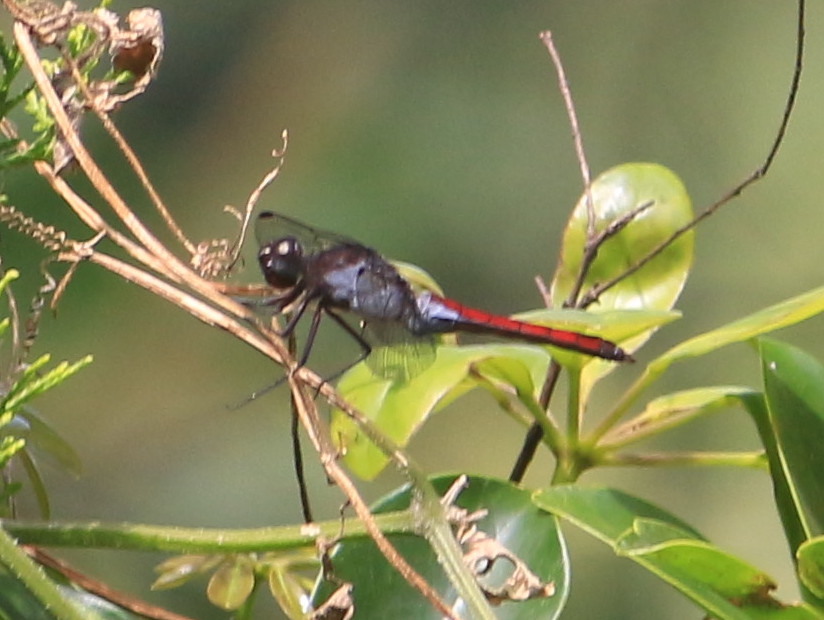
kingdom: Animalia
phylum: Arthropoda
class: Insecta
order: Odonata
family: Libellulidae
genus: Libellula
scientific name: Libellula herculea
